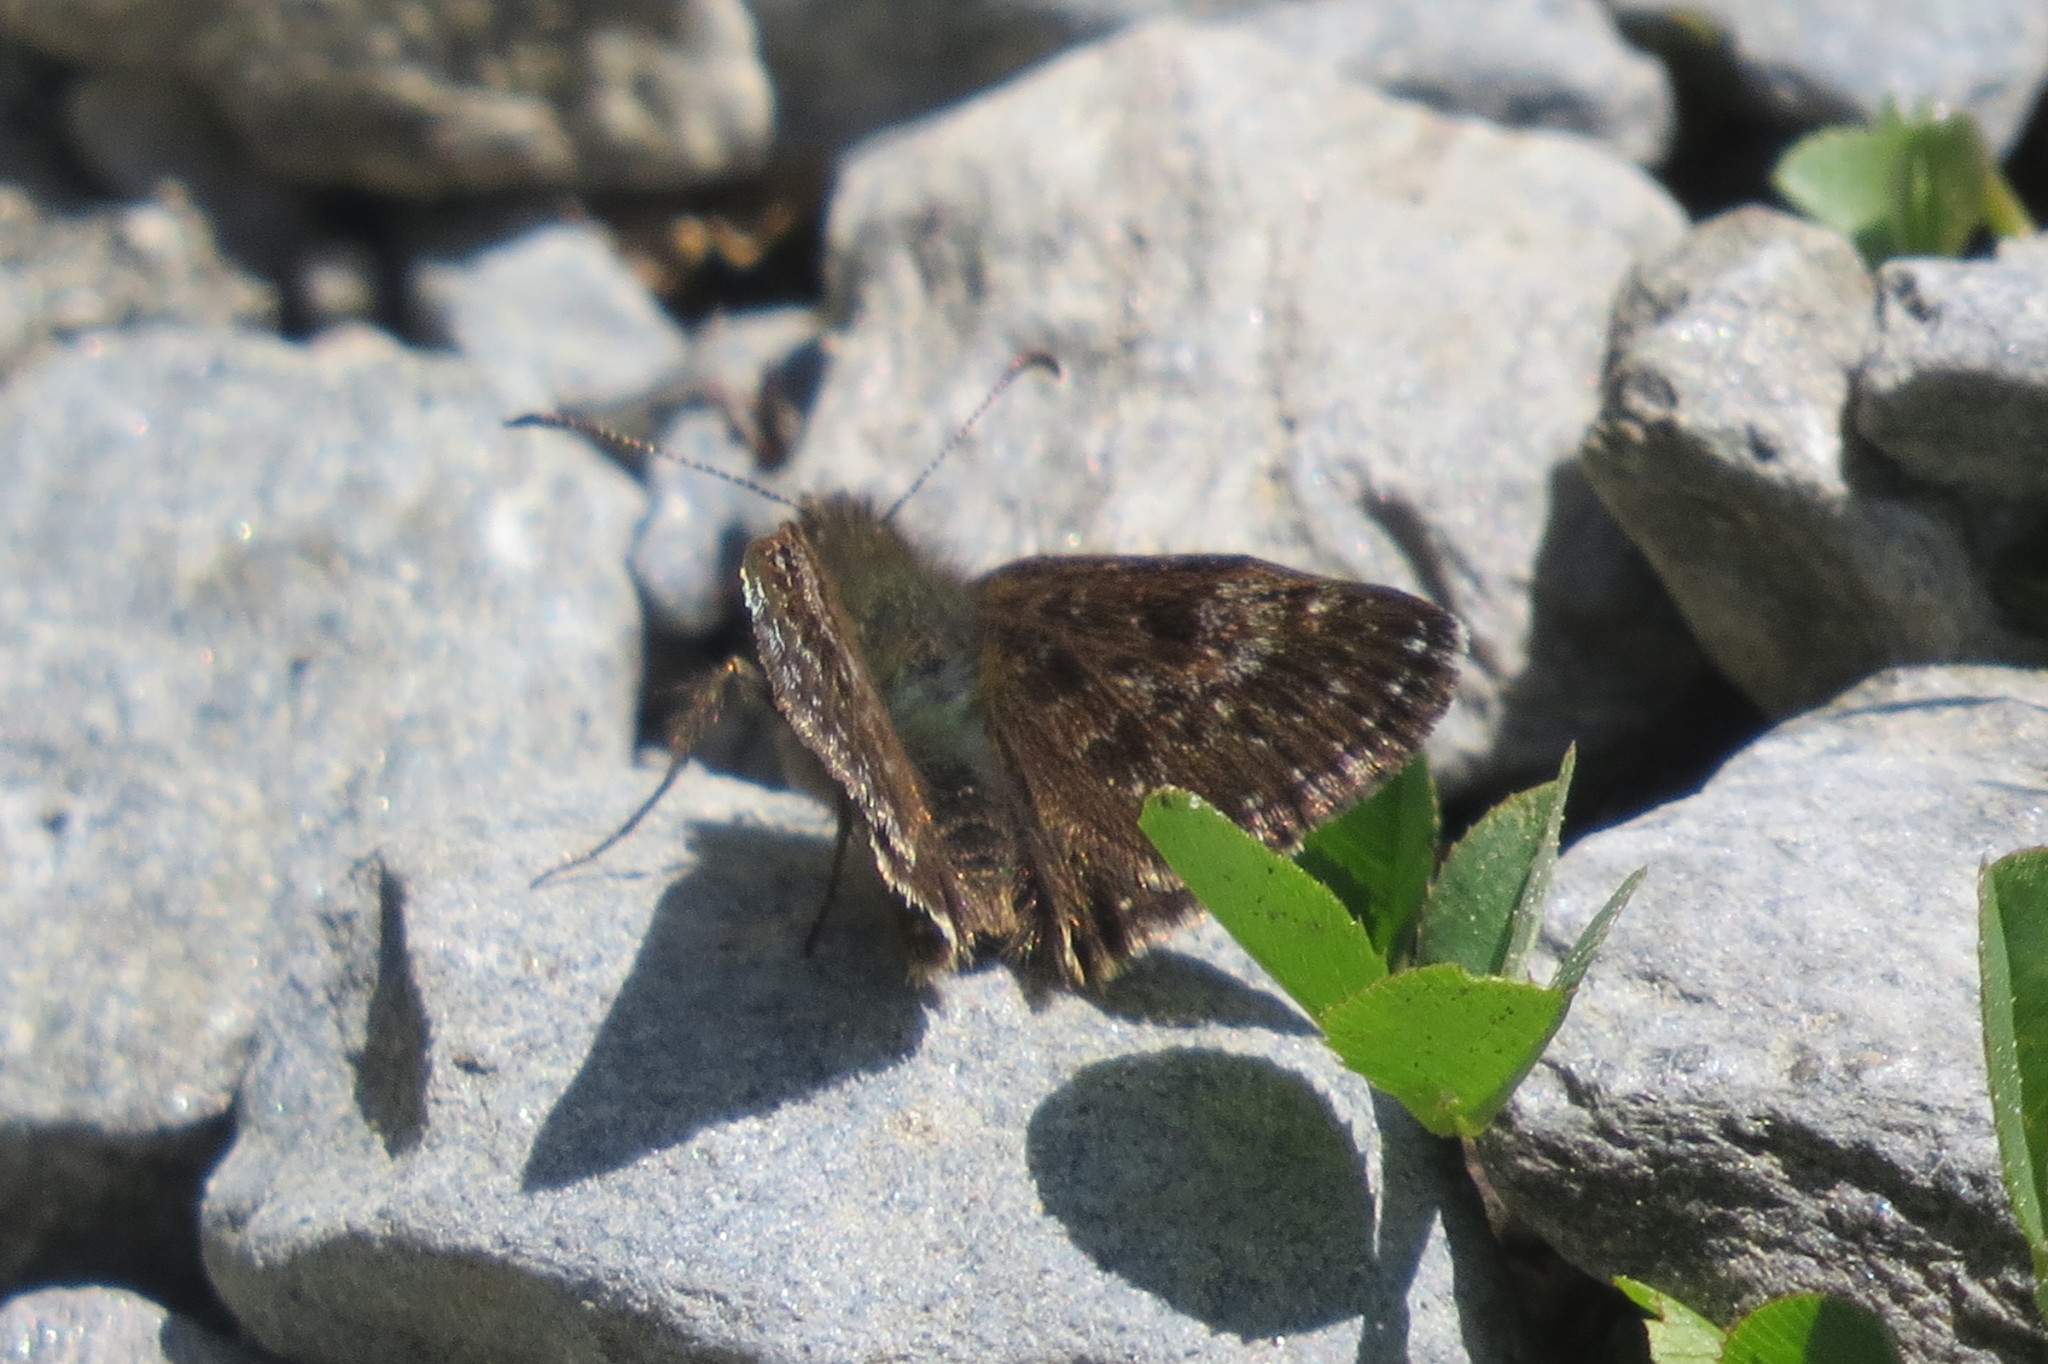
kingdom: Animalia
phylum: Arthropoda
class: Insecta
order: Lepidoptera
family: Hesperiidae
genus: Erynnis
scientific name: Erynnis tages
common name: Dingy skipper
